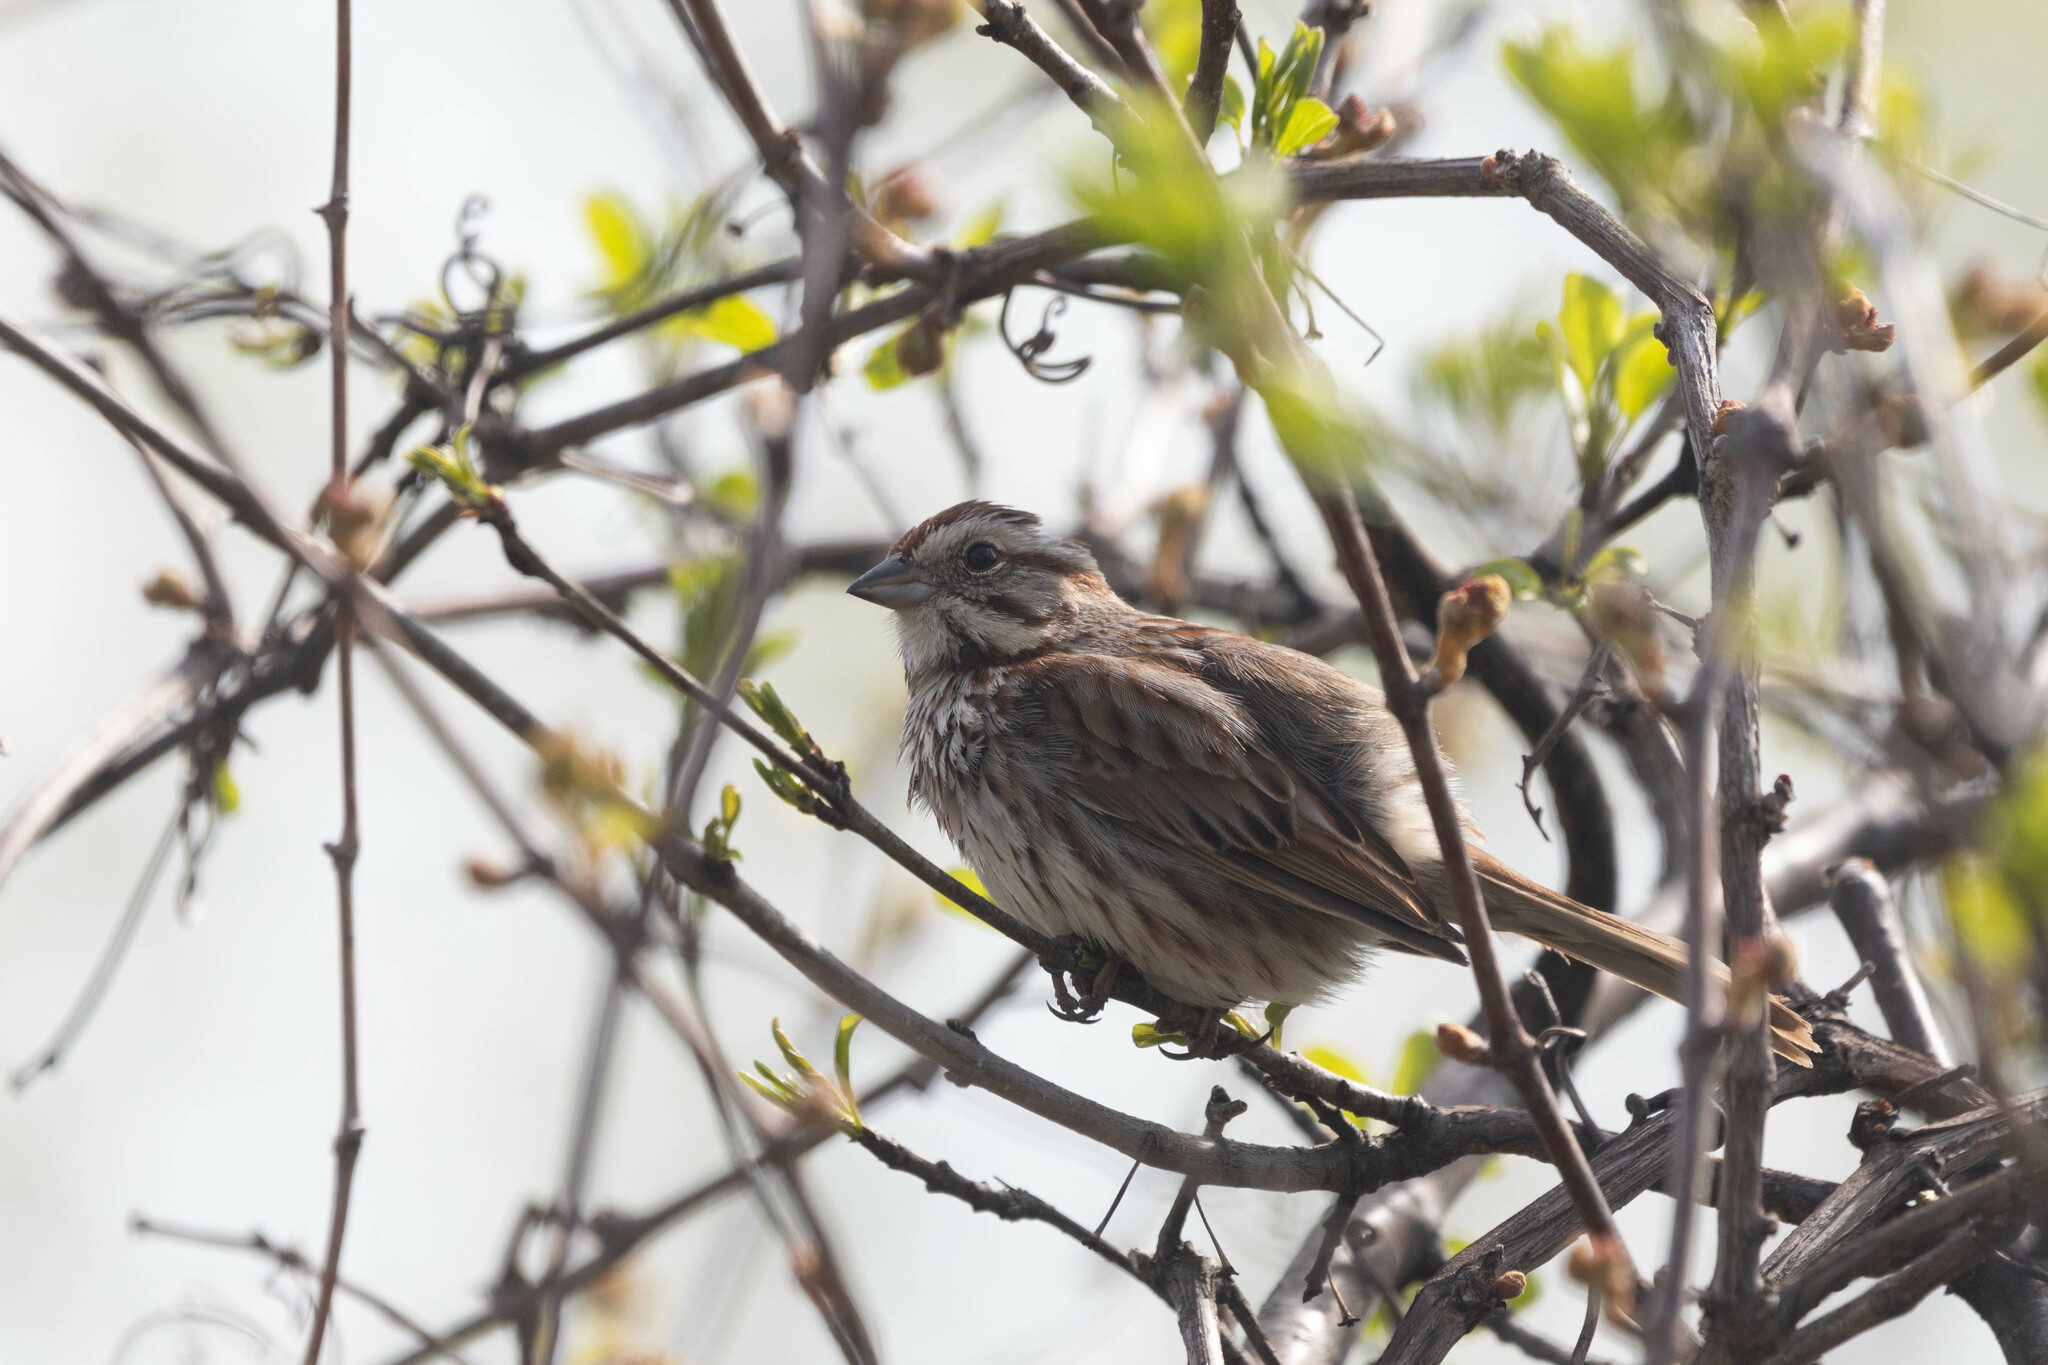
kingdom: Animalia
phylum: Chordata
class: Aves
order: Passeriformes
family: Passerellidae
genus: Melospiza
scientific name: Melospiza melodia
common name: Song sparrow
